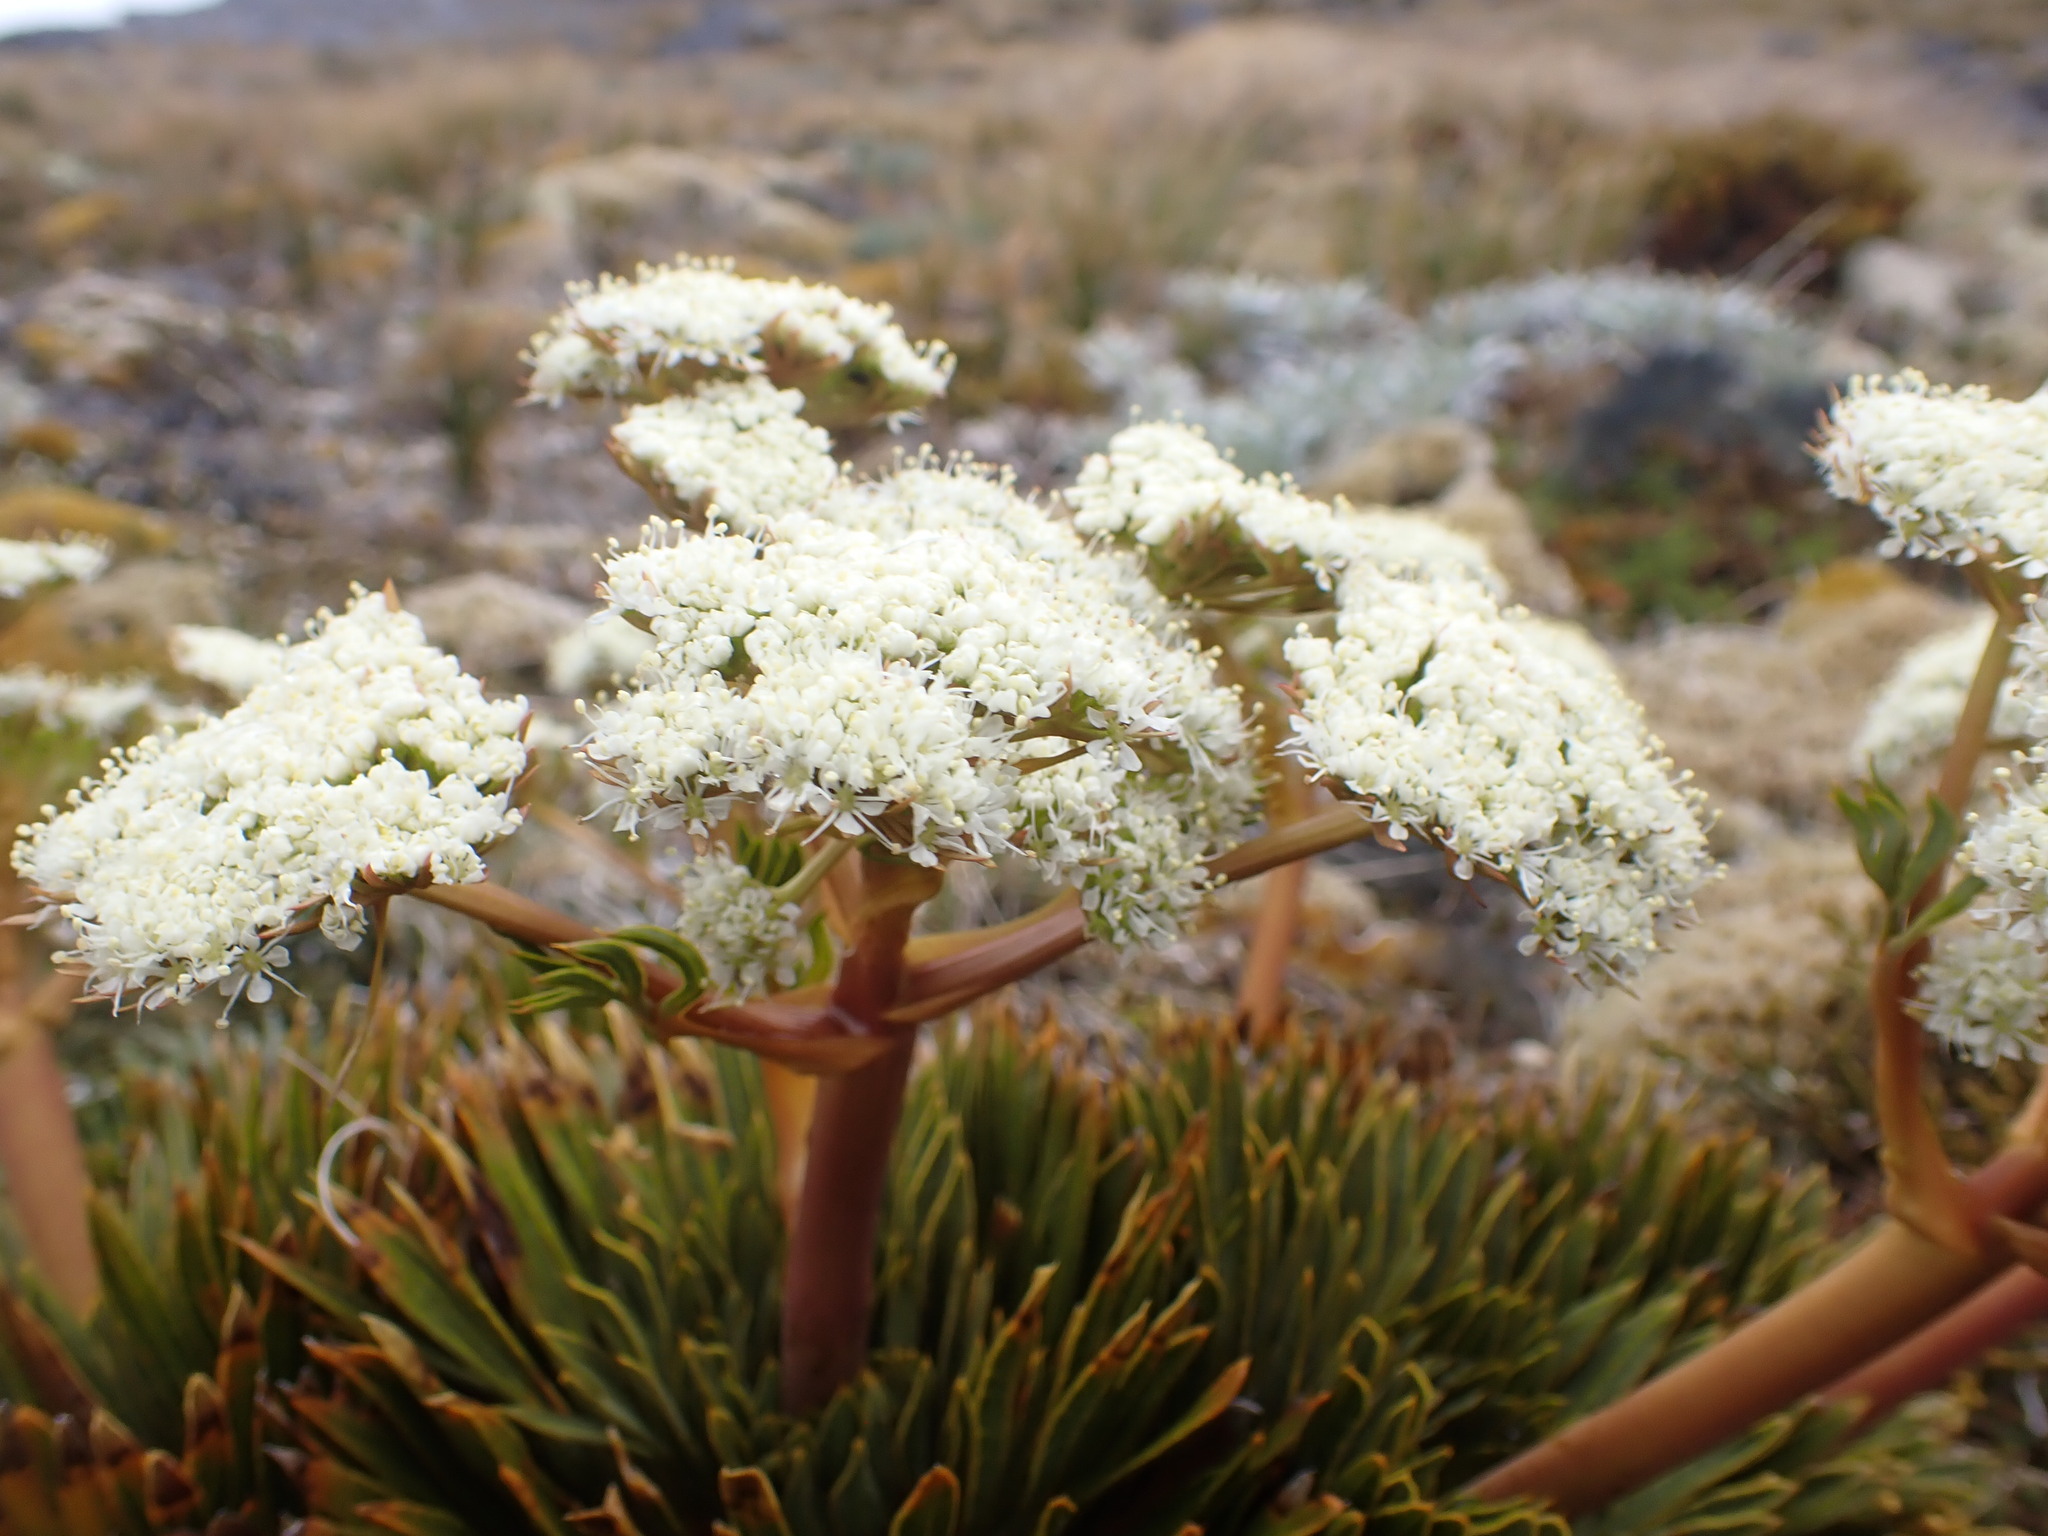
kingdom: Plantae
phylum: Tracheophyta
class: Magnoliopsida
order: Apiales
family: Apiaceae
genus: Aciphylla
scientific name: Aciphylla crosby-smithii
